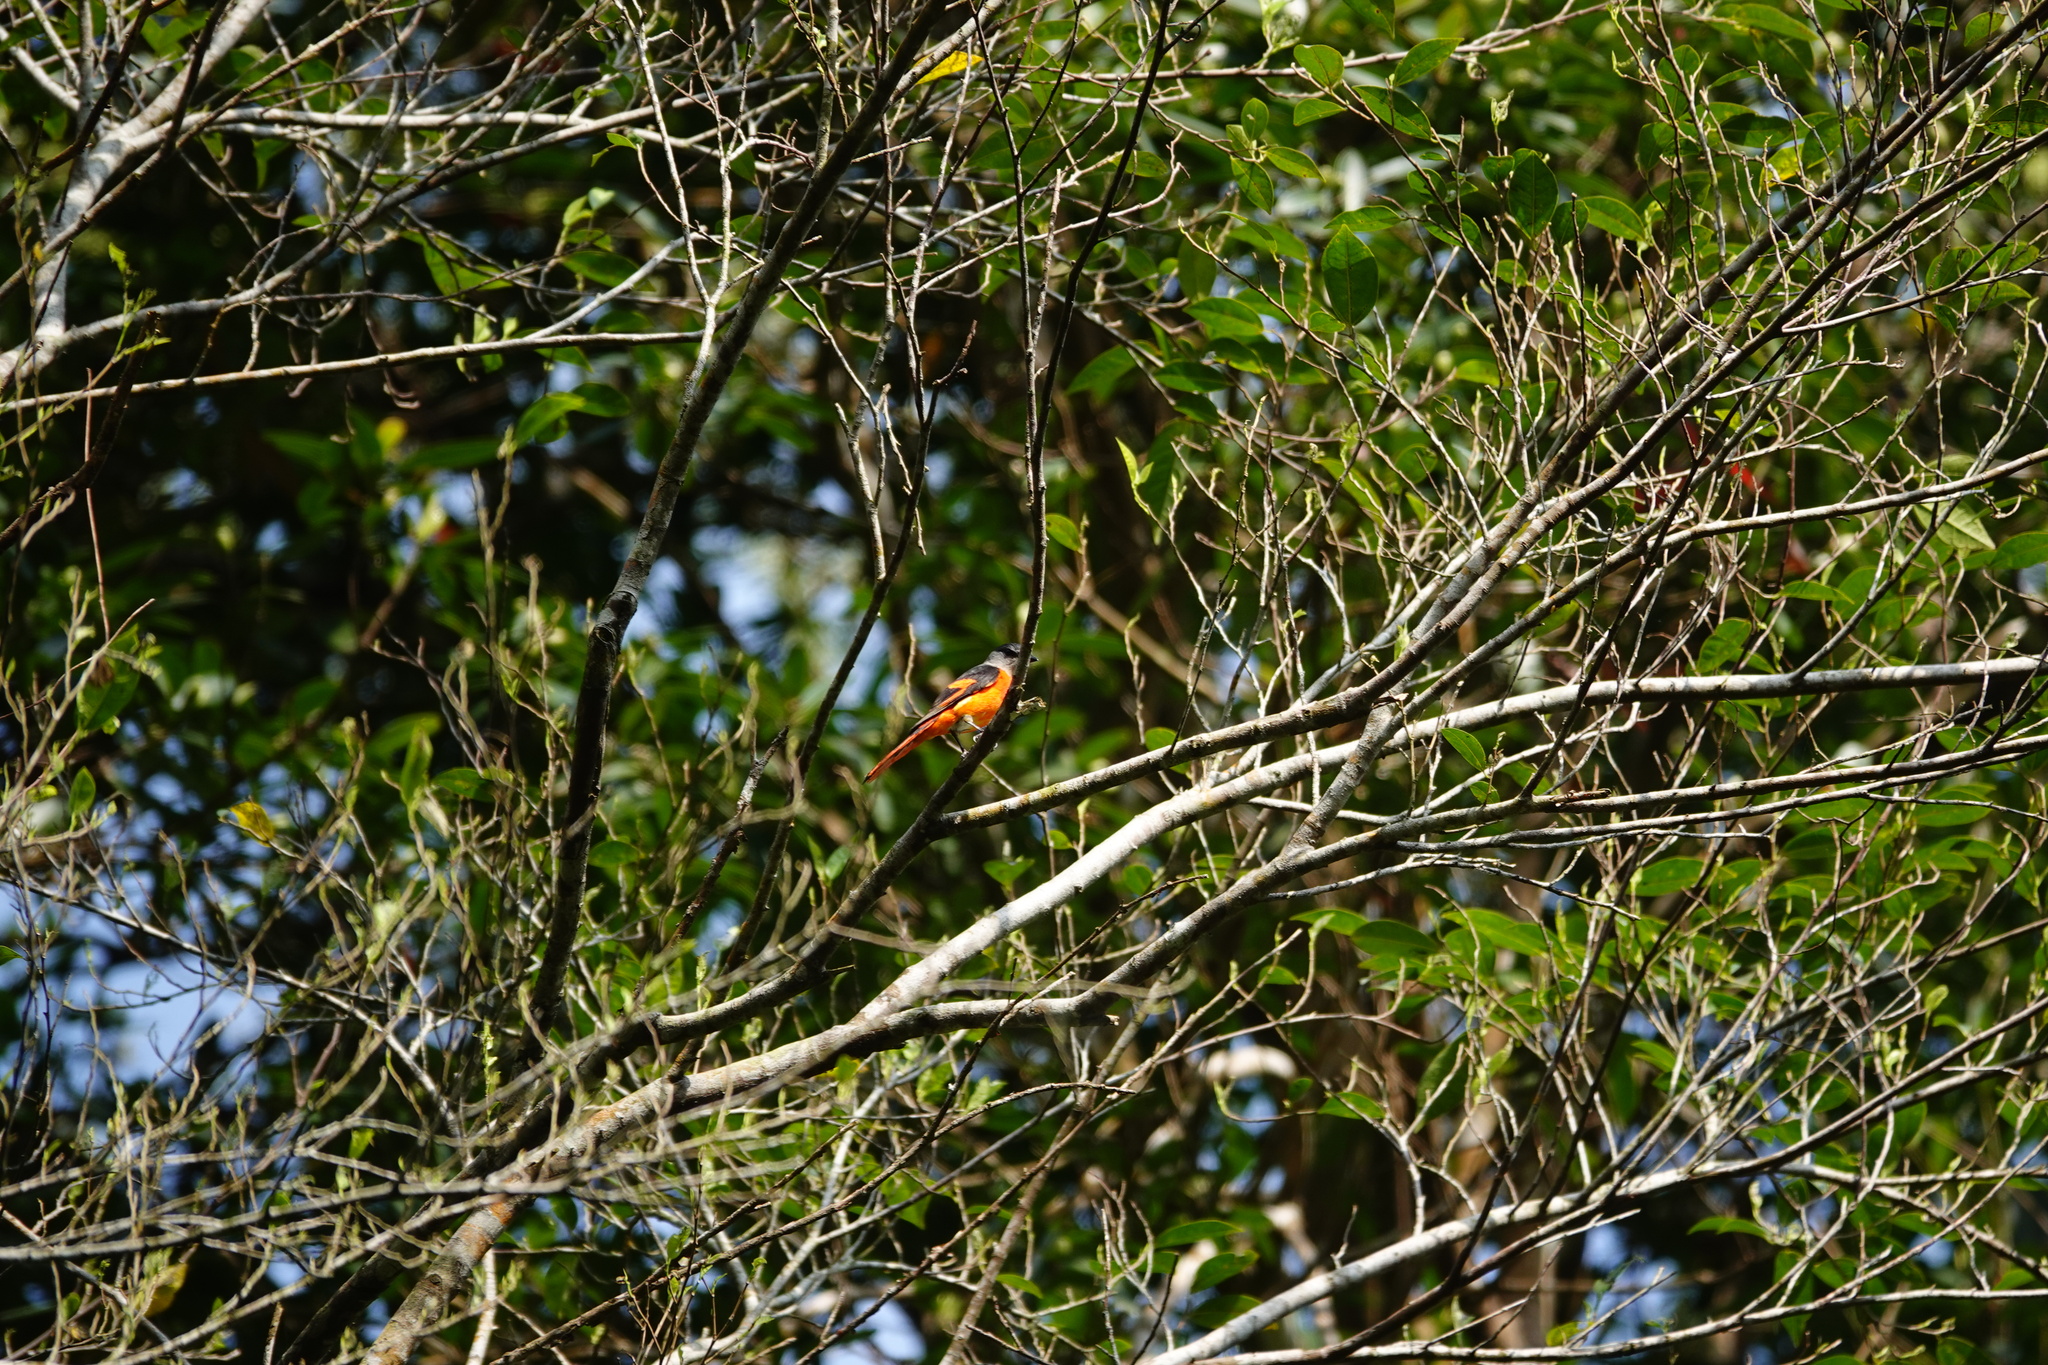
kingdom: Animalia
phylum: Chordata
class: Aves
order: Passeriformes
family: Campephagidae
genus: Pericrocotus
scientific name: Pericrocotus solaris
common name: Grey-chinned minivet
